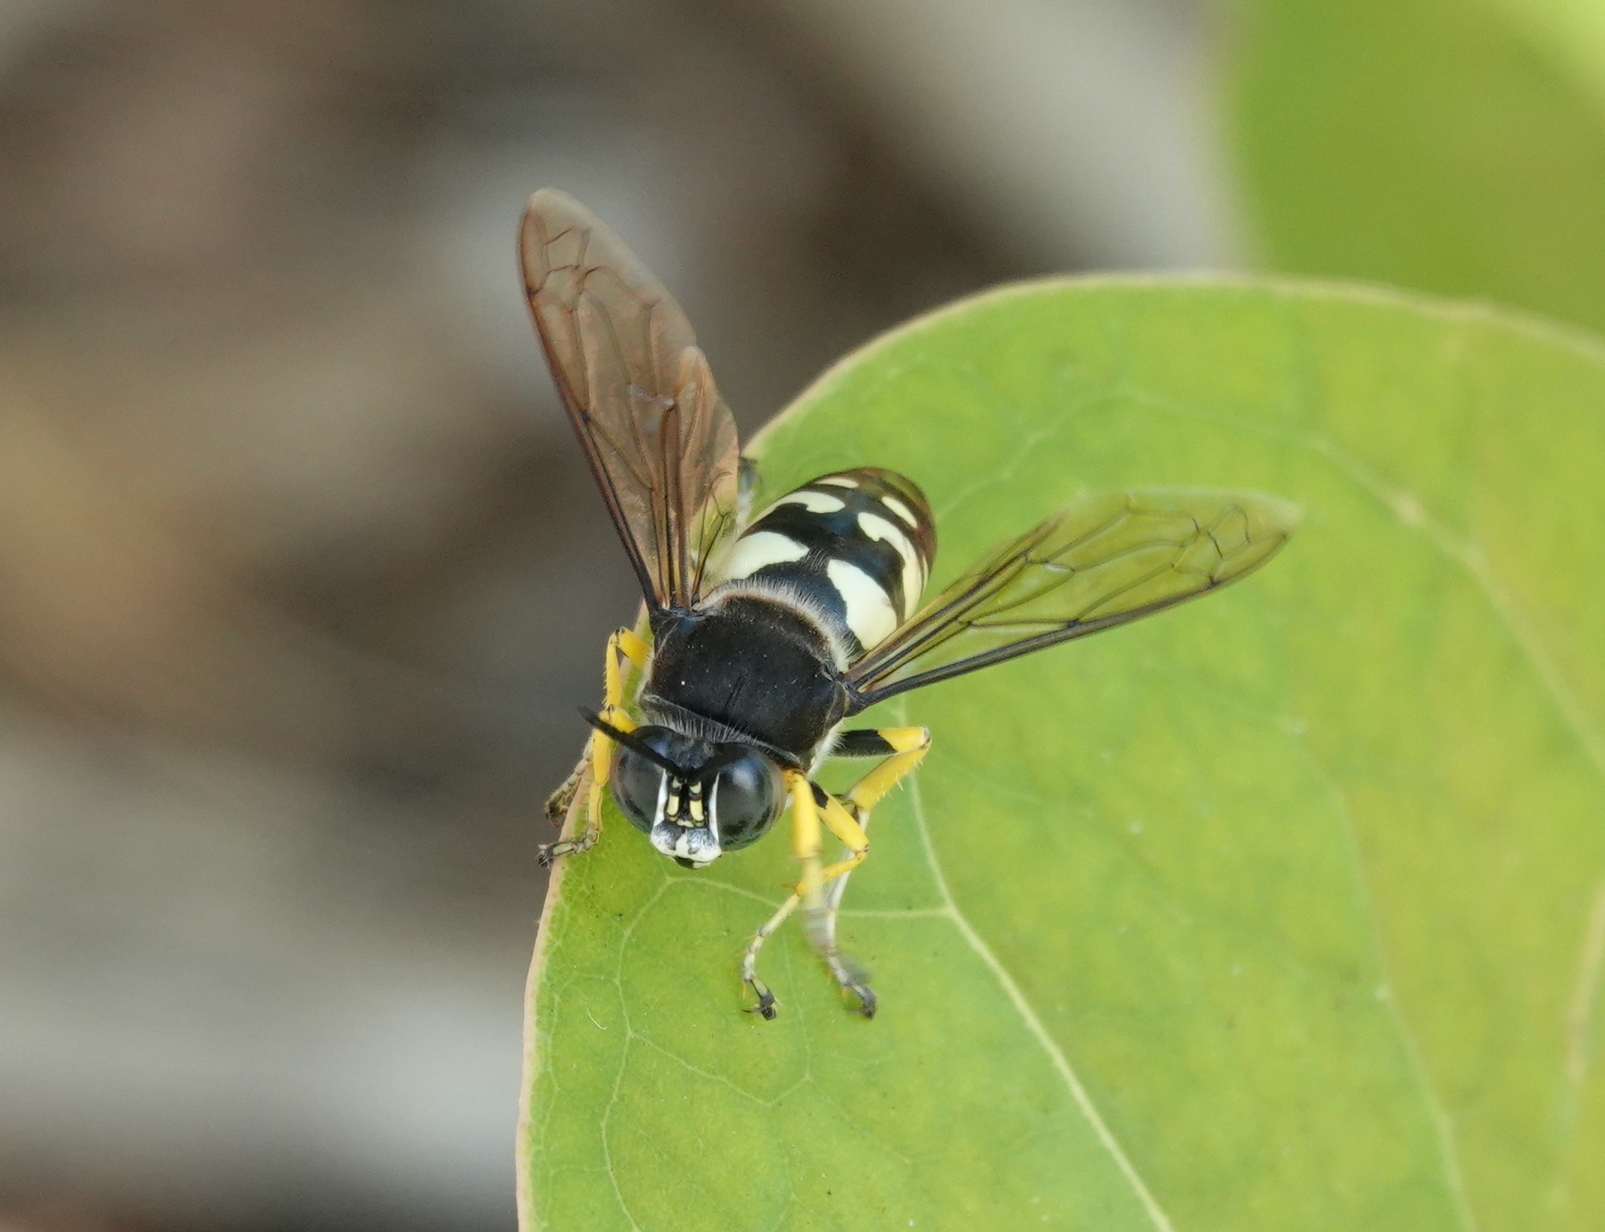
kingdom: Animalia
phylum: Arthropoda
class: Insecta
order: Hymenoptera
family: Crabronidae
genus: Stictia
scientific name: Stictia carolina
